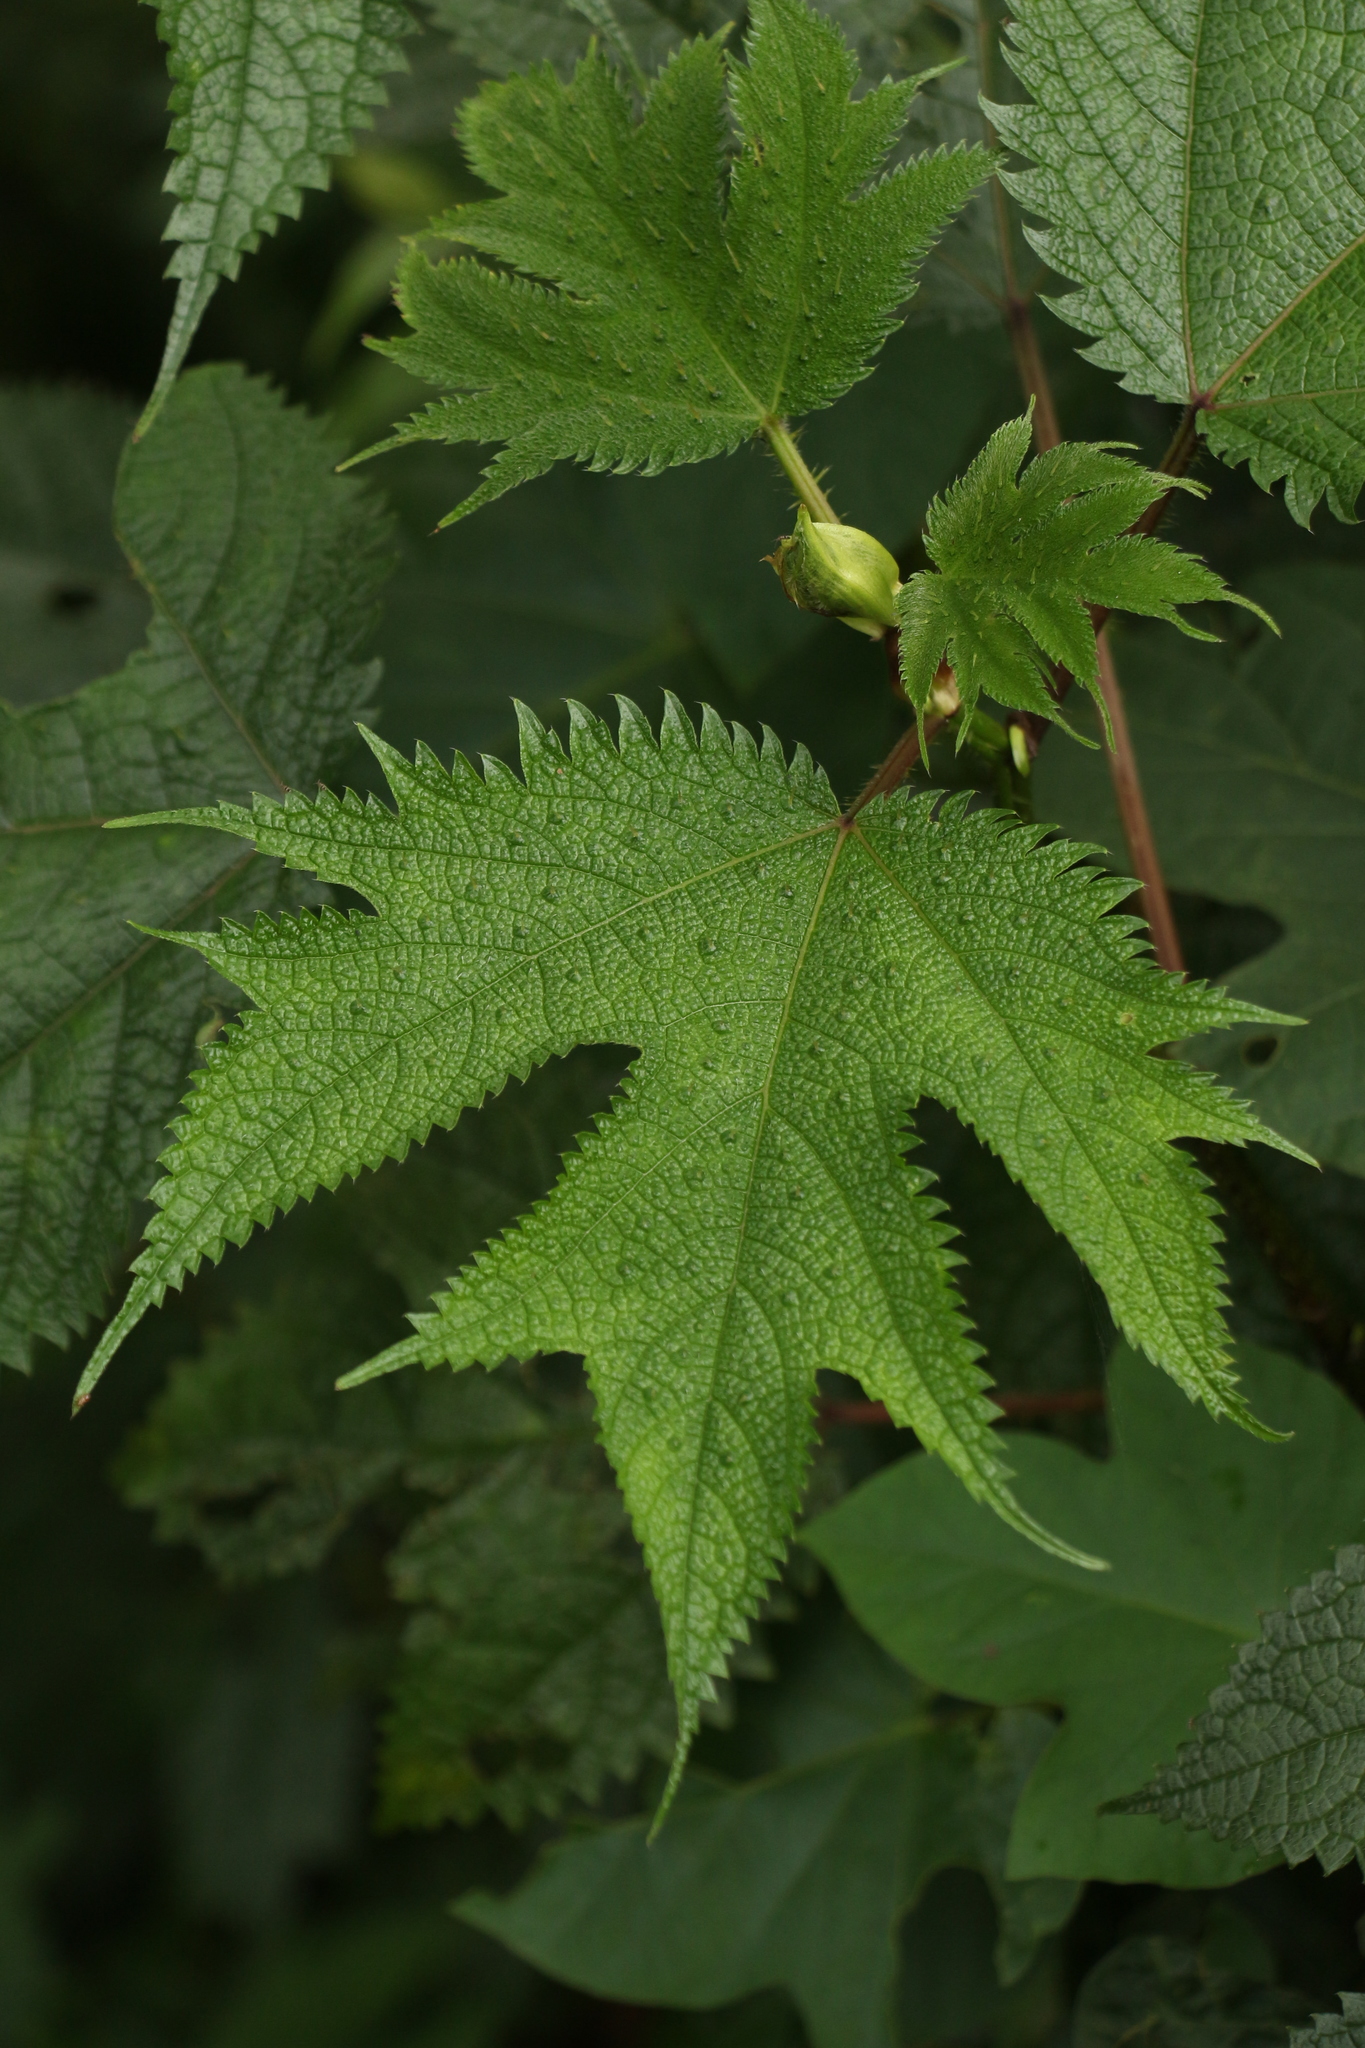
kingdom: Plantae
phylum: Tracheophyta
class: Magnoliopsida
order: Rosales
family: Urticaceae
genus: Girardinia
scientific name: Girardinia diversifolia
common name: Himalayan-nettle
